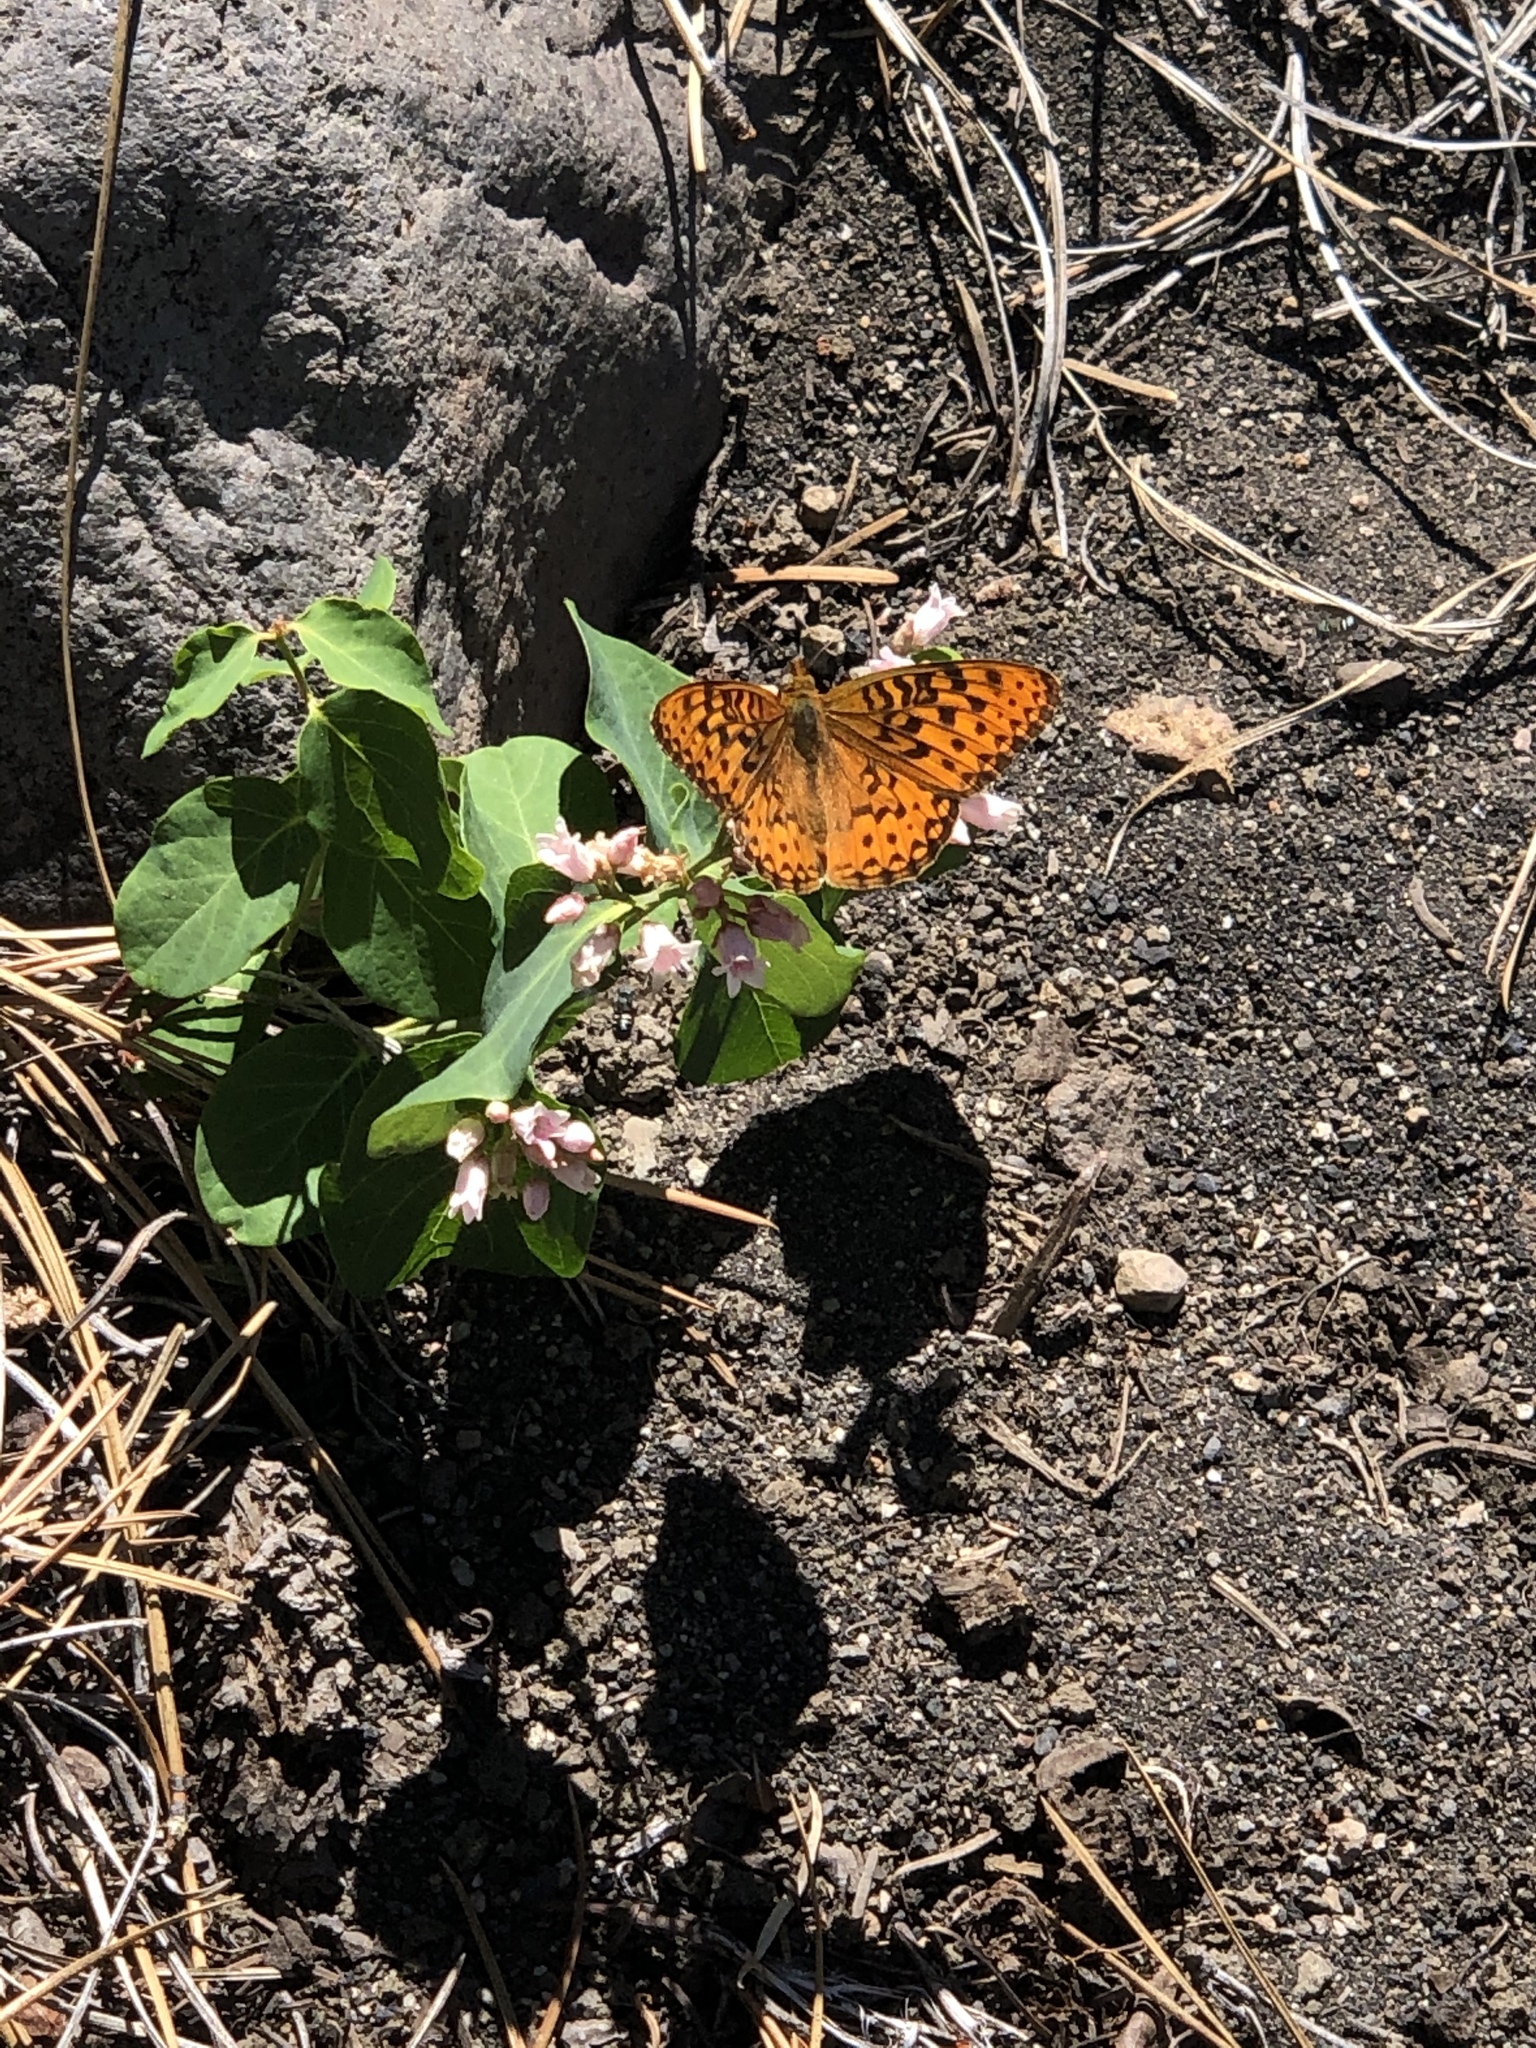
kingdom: Animalia
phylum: Arthropoda
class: Insecta
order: Lepidoptera
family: Nymphalidae
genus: Speyeria
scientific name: Speyeria egleis
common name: Great basin fritillary
